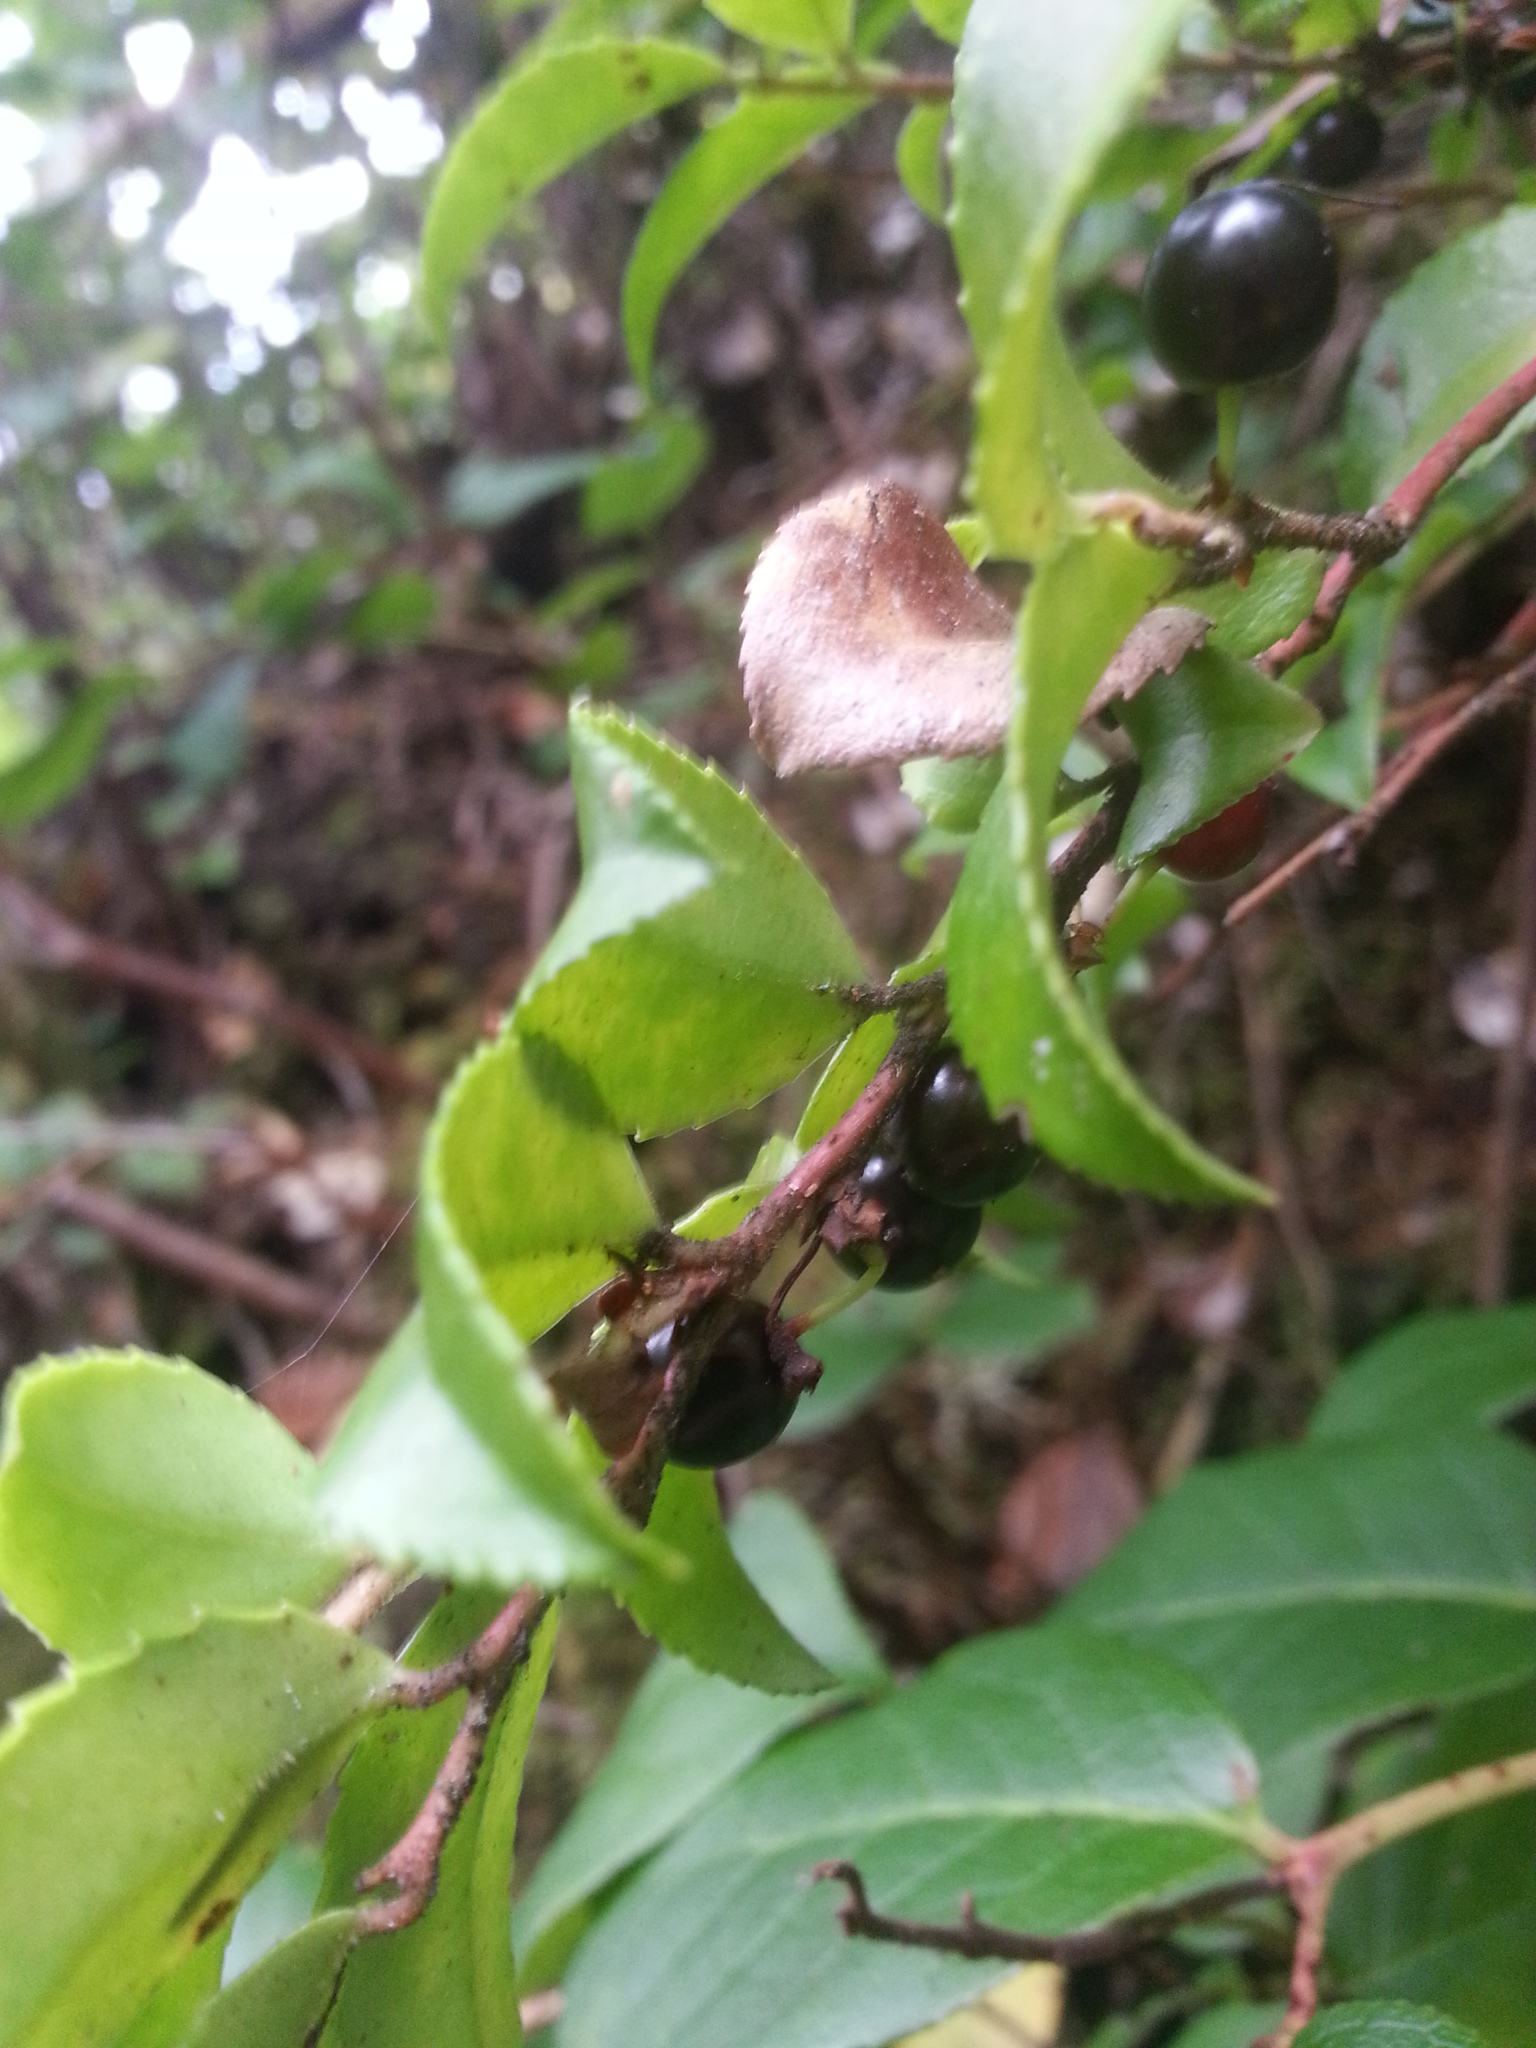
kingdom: Plantae
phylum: Tracheophyta
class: Magnoliopsida
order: Ericales
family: Ericaceae
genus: Vaccinium
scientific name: Vaccinium ovatum
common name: California-huckleberry
